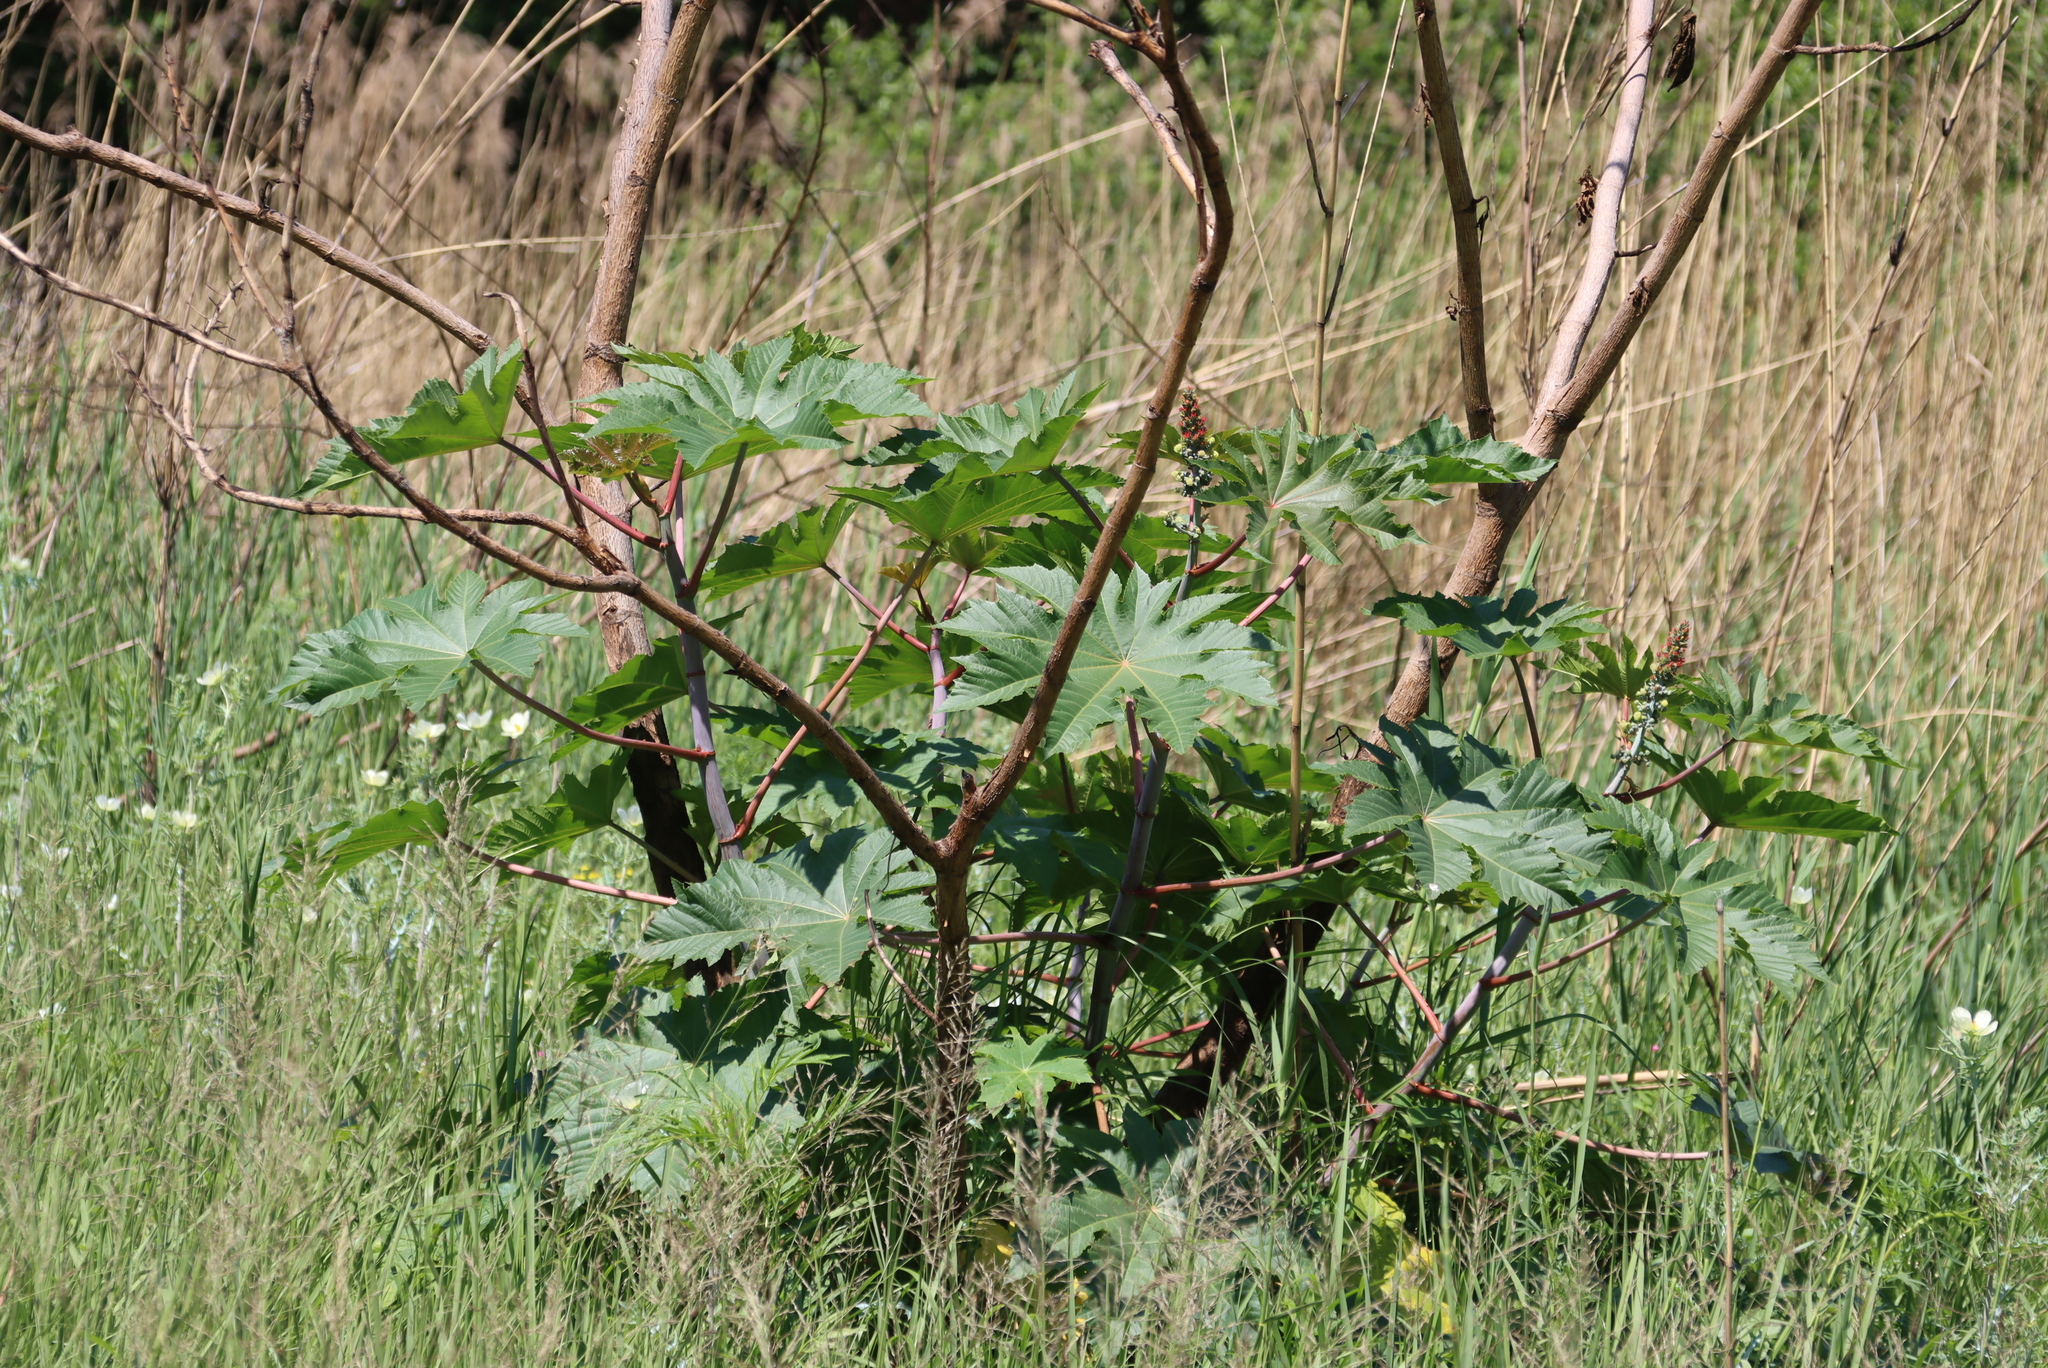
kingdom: Plantae
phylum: Tracheophyta
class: Magnoliopsida
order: Malpighiales
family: Euphorbiaceae
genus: Ricinus
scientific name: Ricinus communis
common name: Castor-oil-plant
